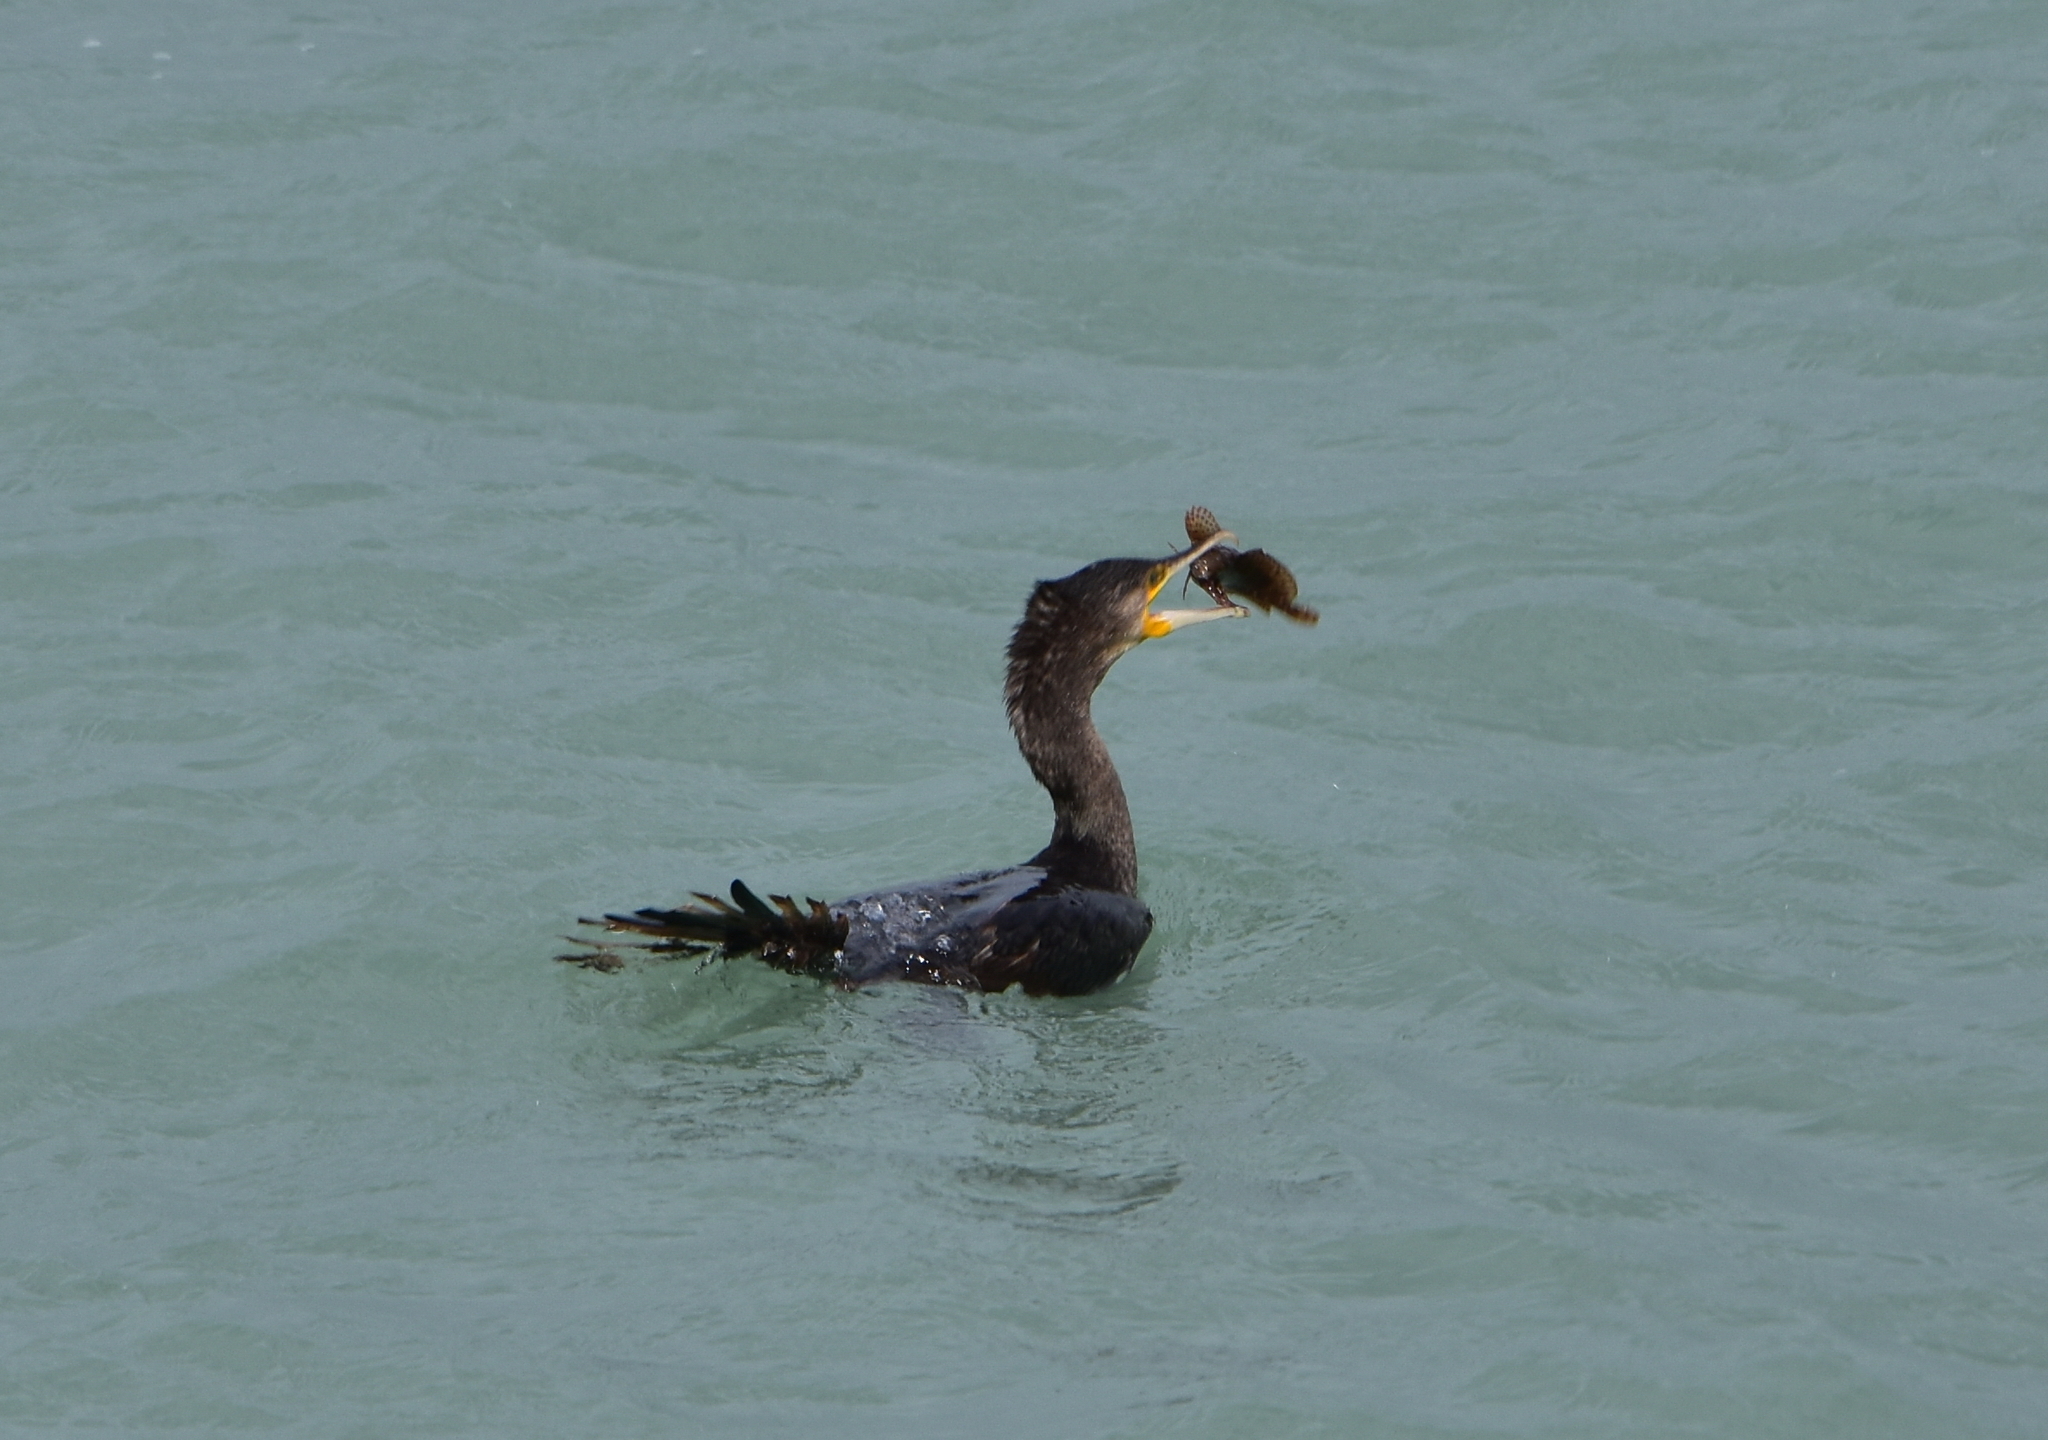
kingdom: Animalia
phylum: Chordata
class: Aves
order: Suliformes
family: Phalacrocoracidae
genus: Phalacrocorax
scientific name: Phalacrocorax carbo
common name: Great cormorant
